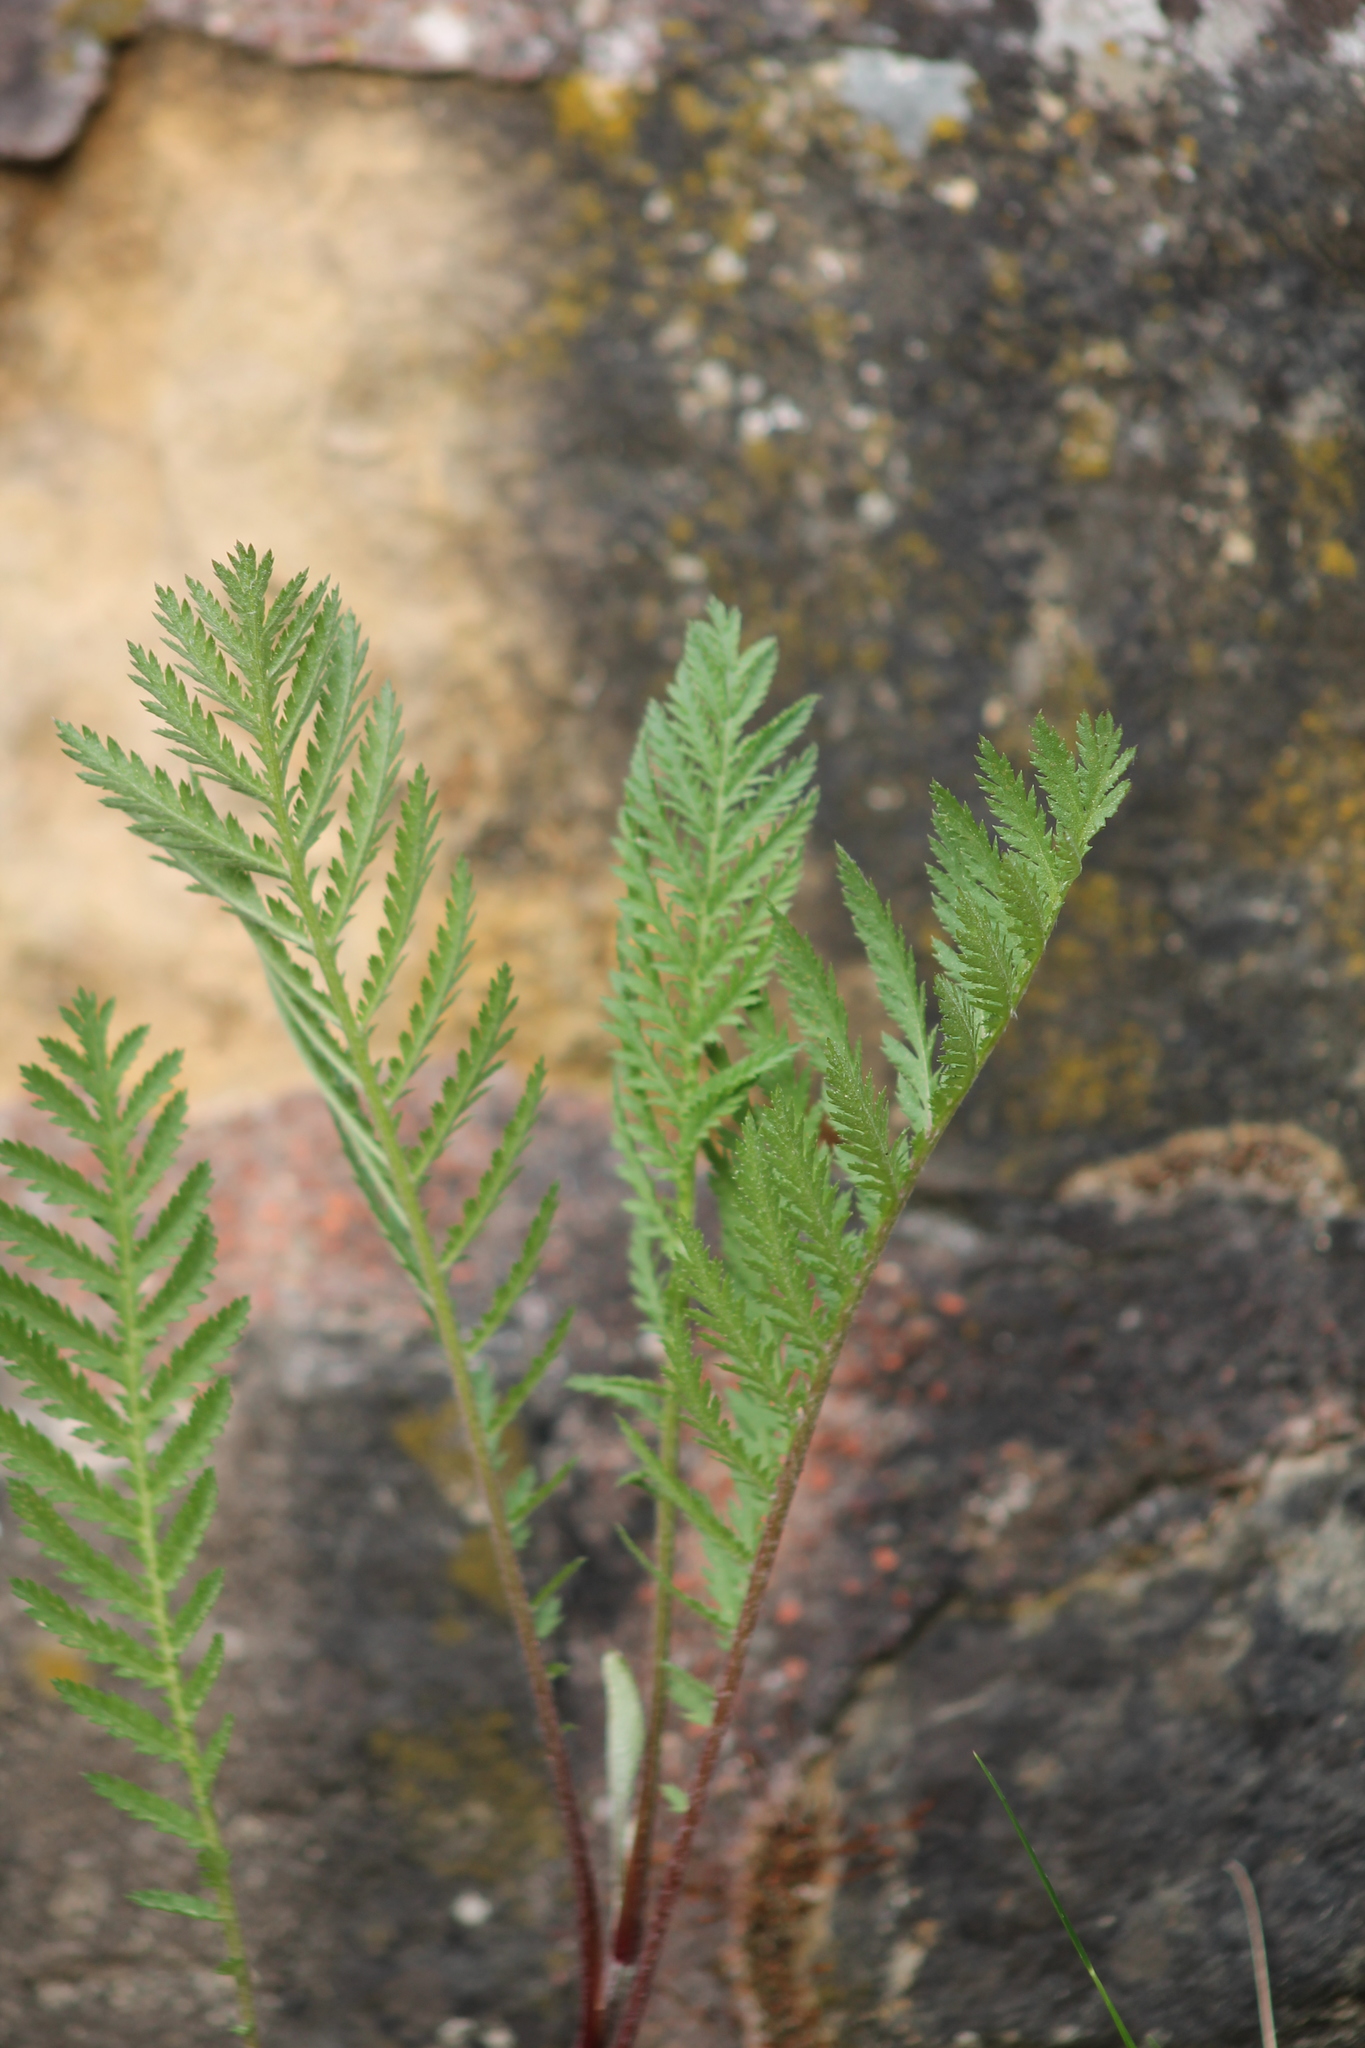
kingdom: Plantae
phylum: Tracheophyta
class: Magnoliopsida
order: Asterales
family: Asteraceae
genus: Tanacetum
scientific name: Tanacetum vulgare
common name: Common tansy
